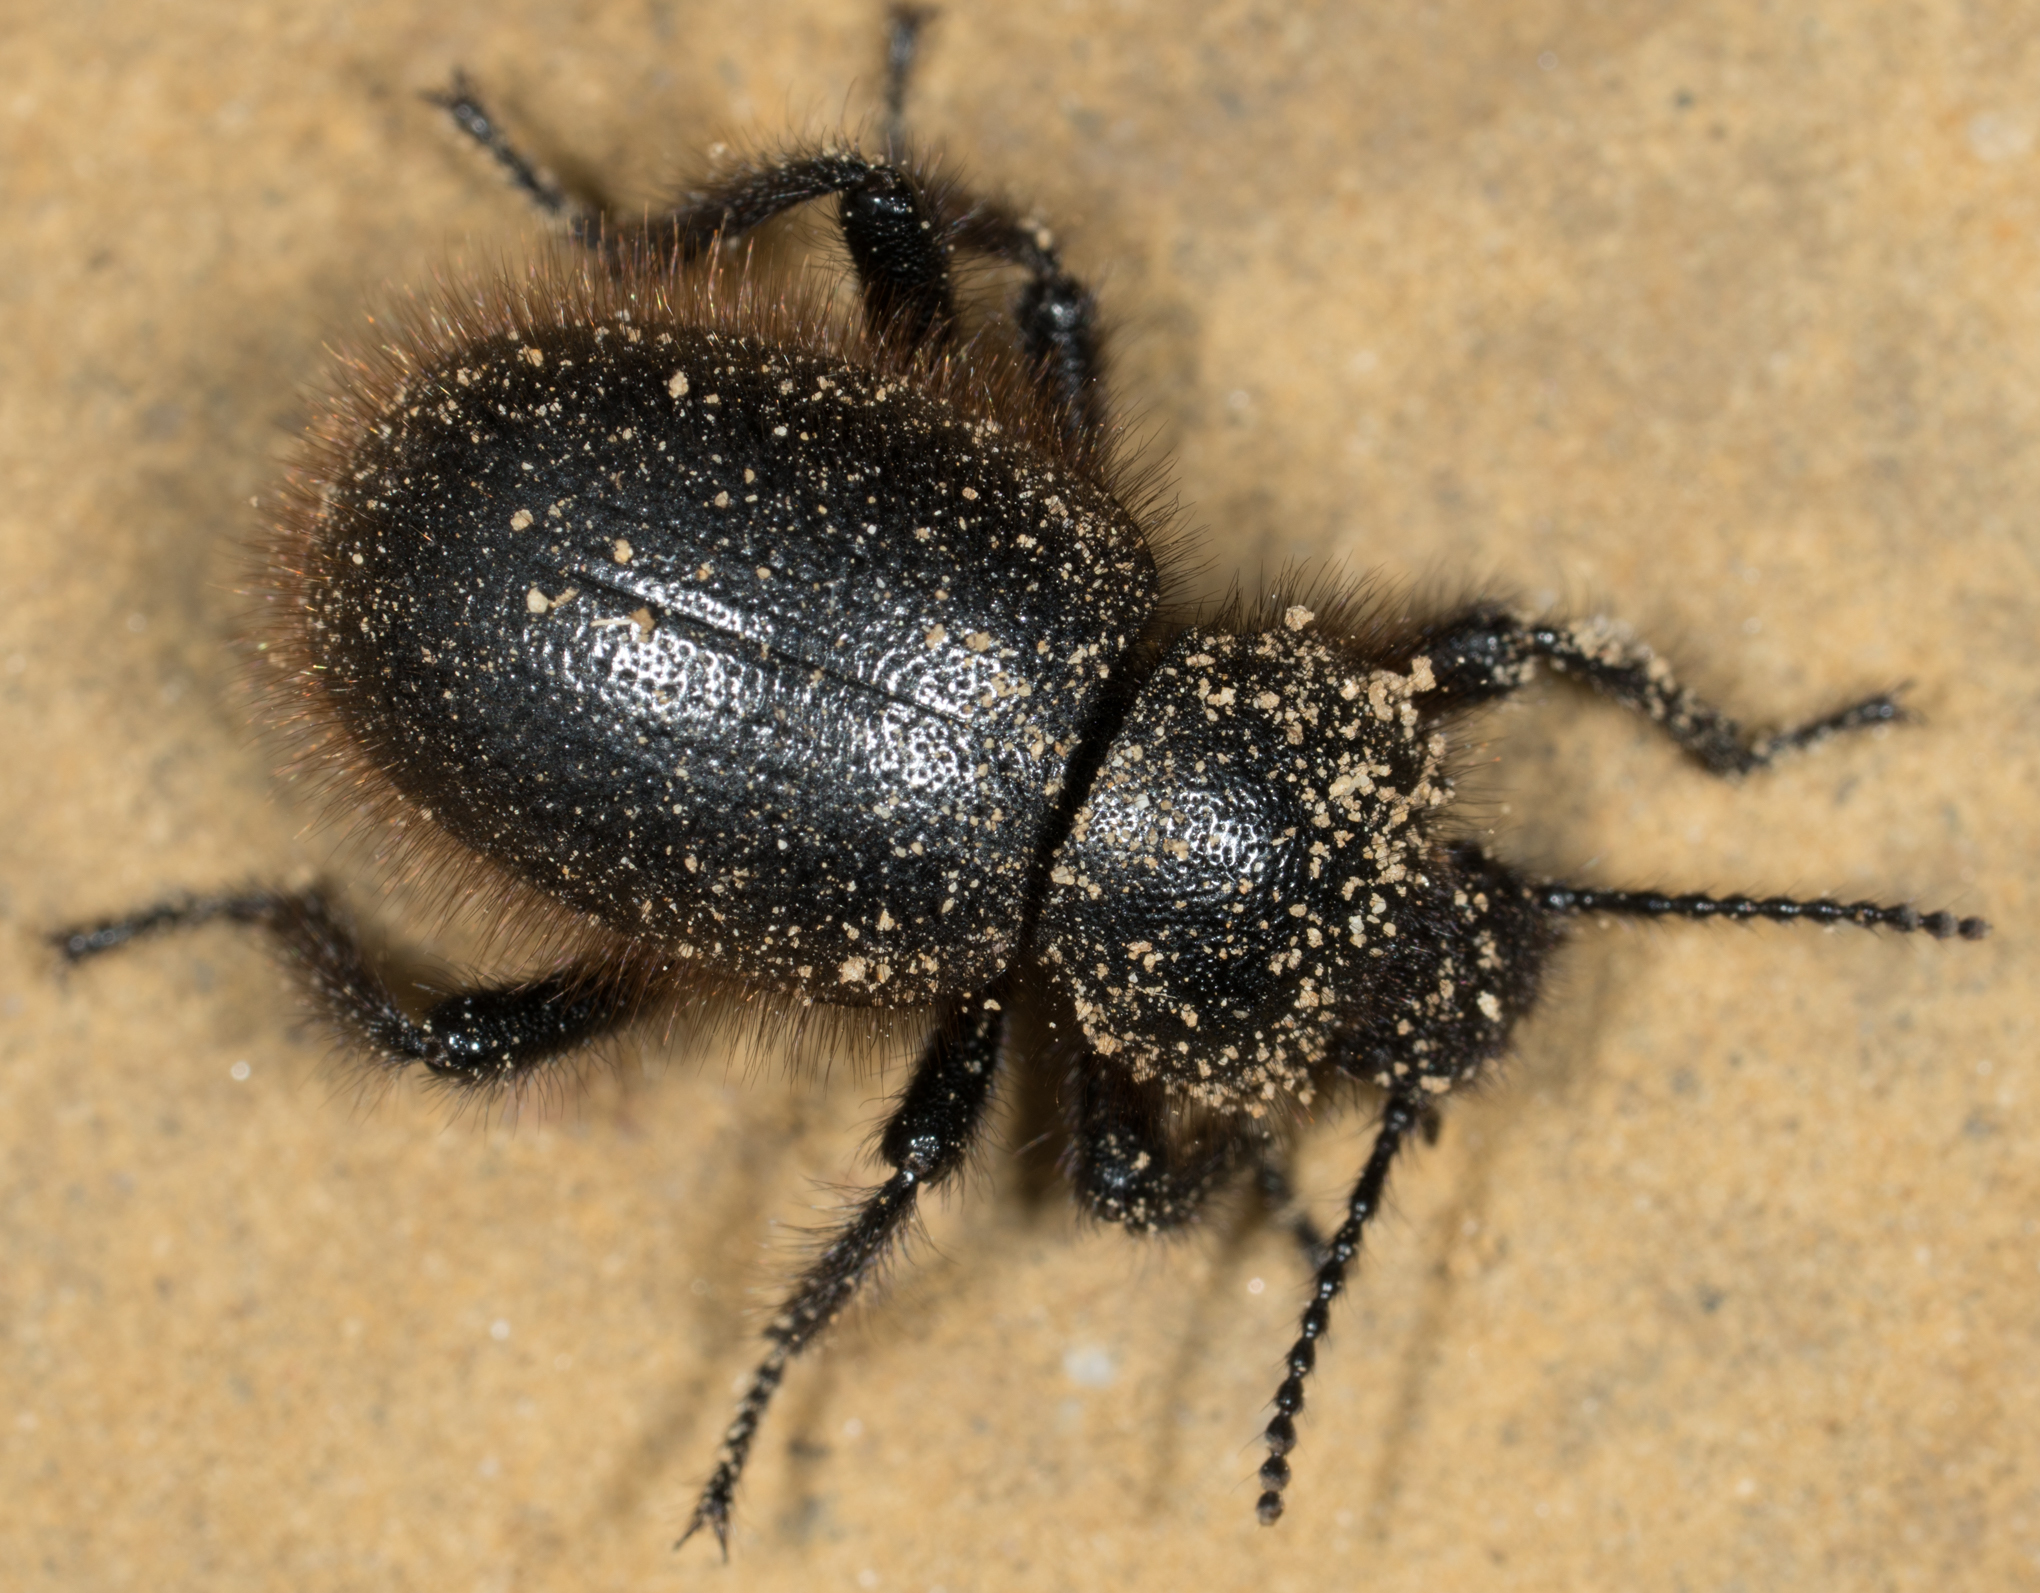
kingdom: Animalia
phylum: Arthropoda
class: Insecta
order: Coleoptera
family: Tenebrionidae
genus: Eleodes
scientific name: Eleodes osculans
